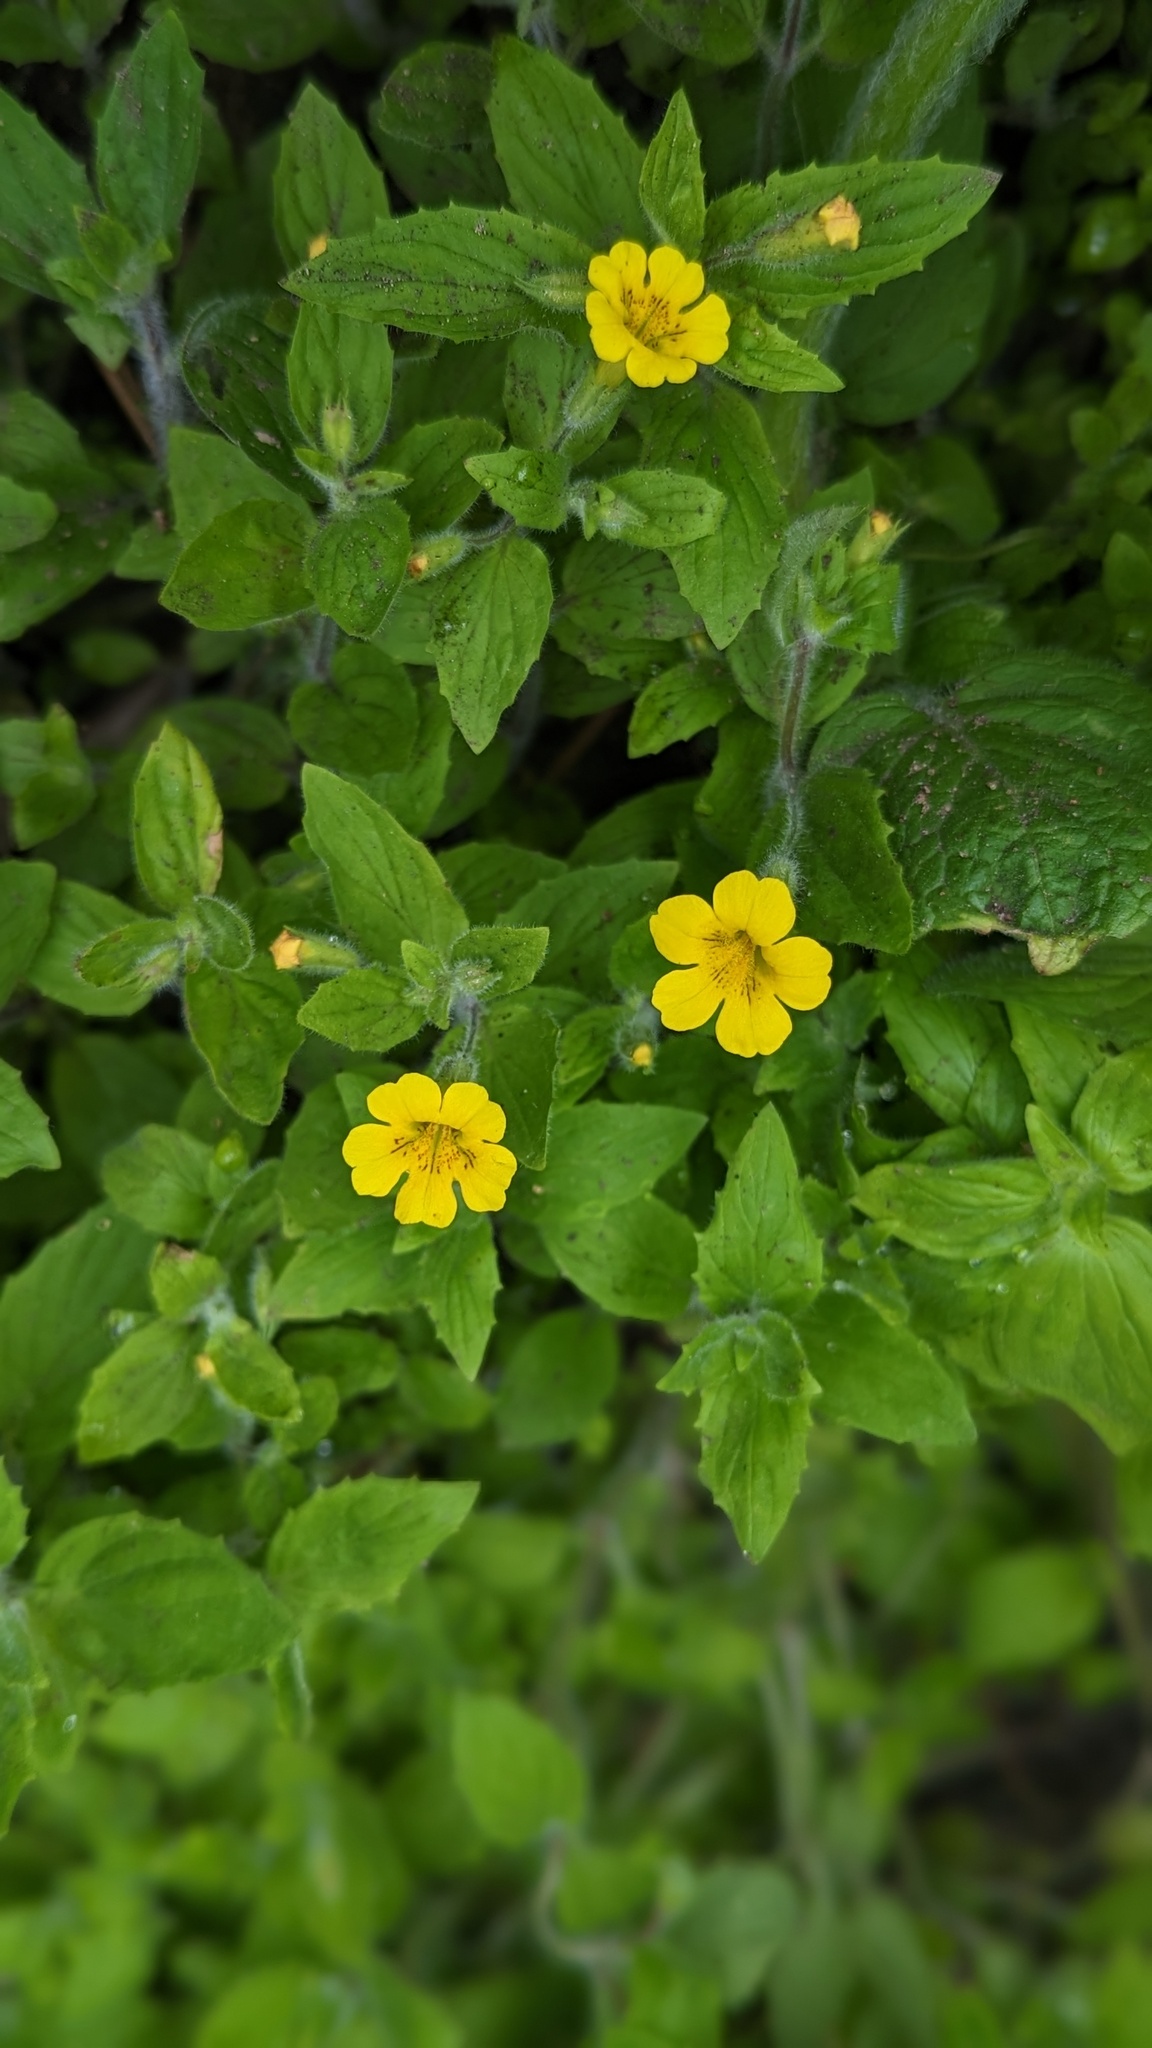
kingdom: Plantae
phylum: Tracheophyta
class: Magnoliopsida
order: Lamiales
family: Phrymaceae
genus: Erythranthe
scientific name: Erythranthe moschata
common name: Muskflower
